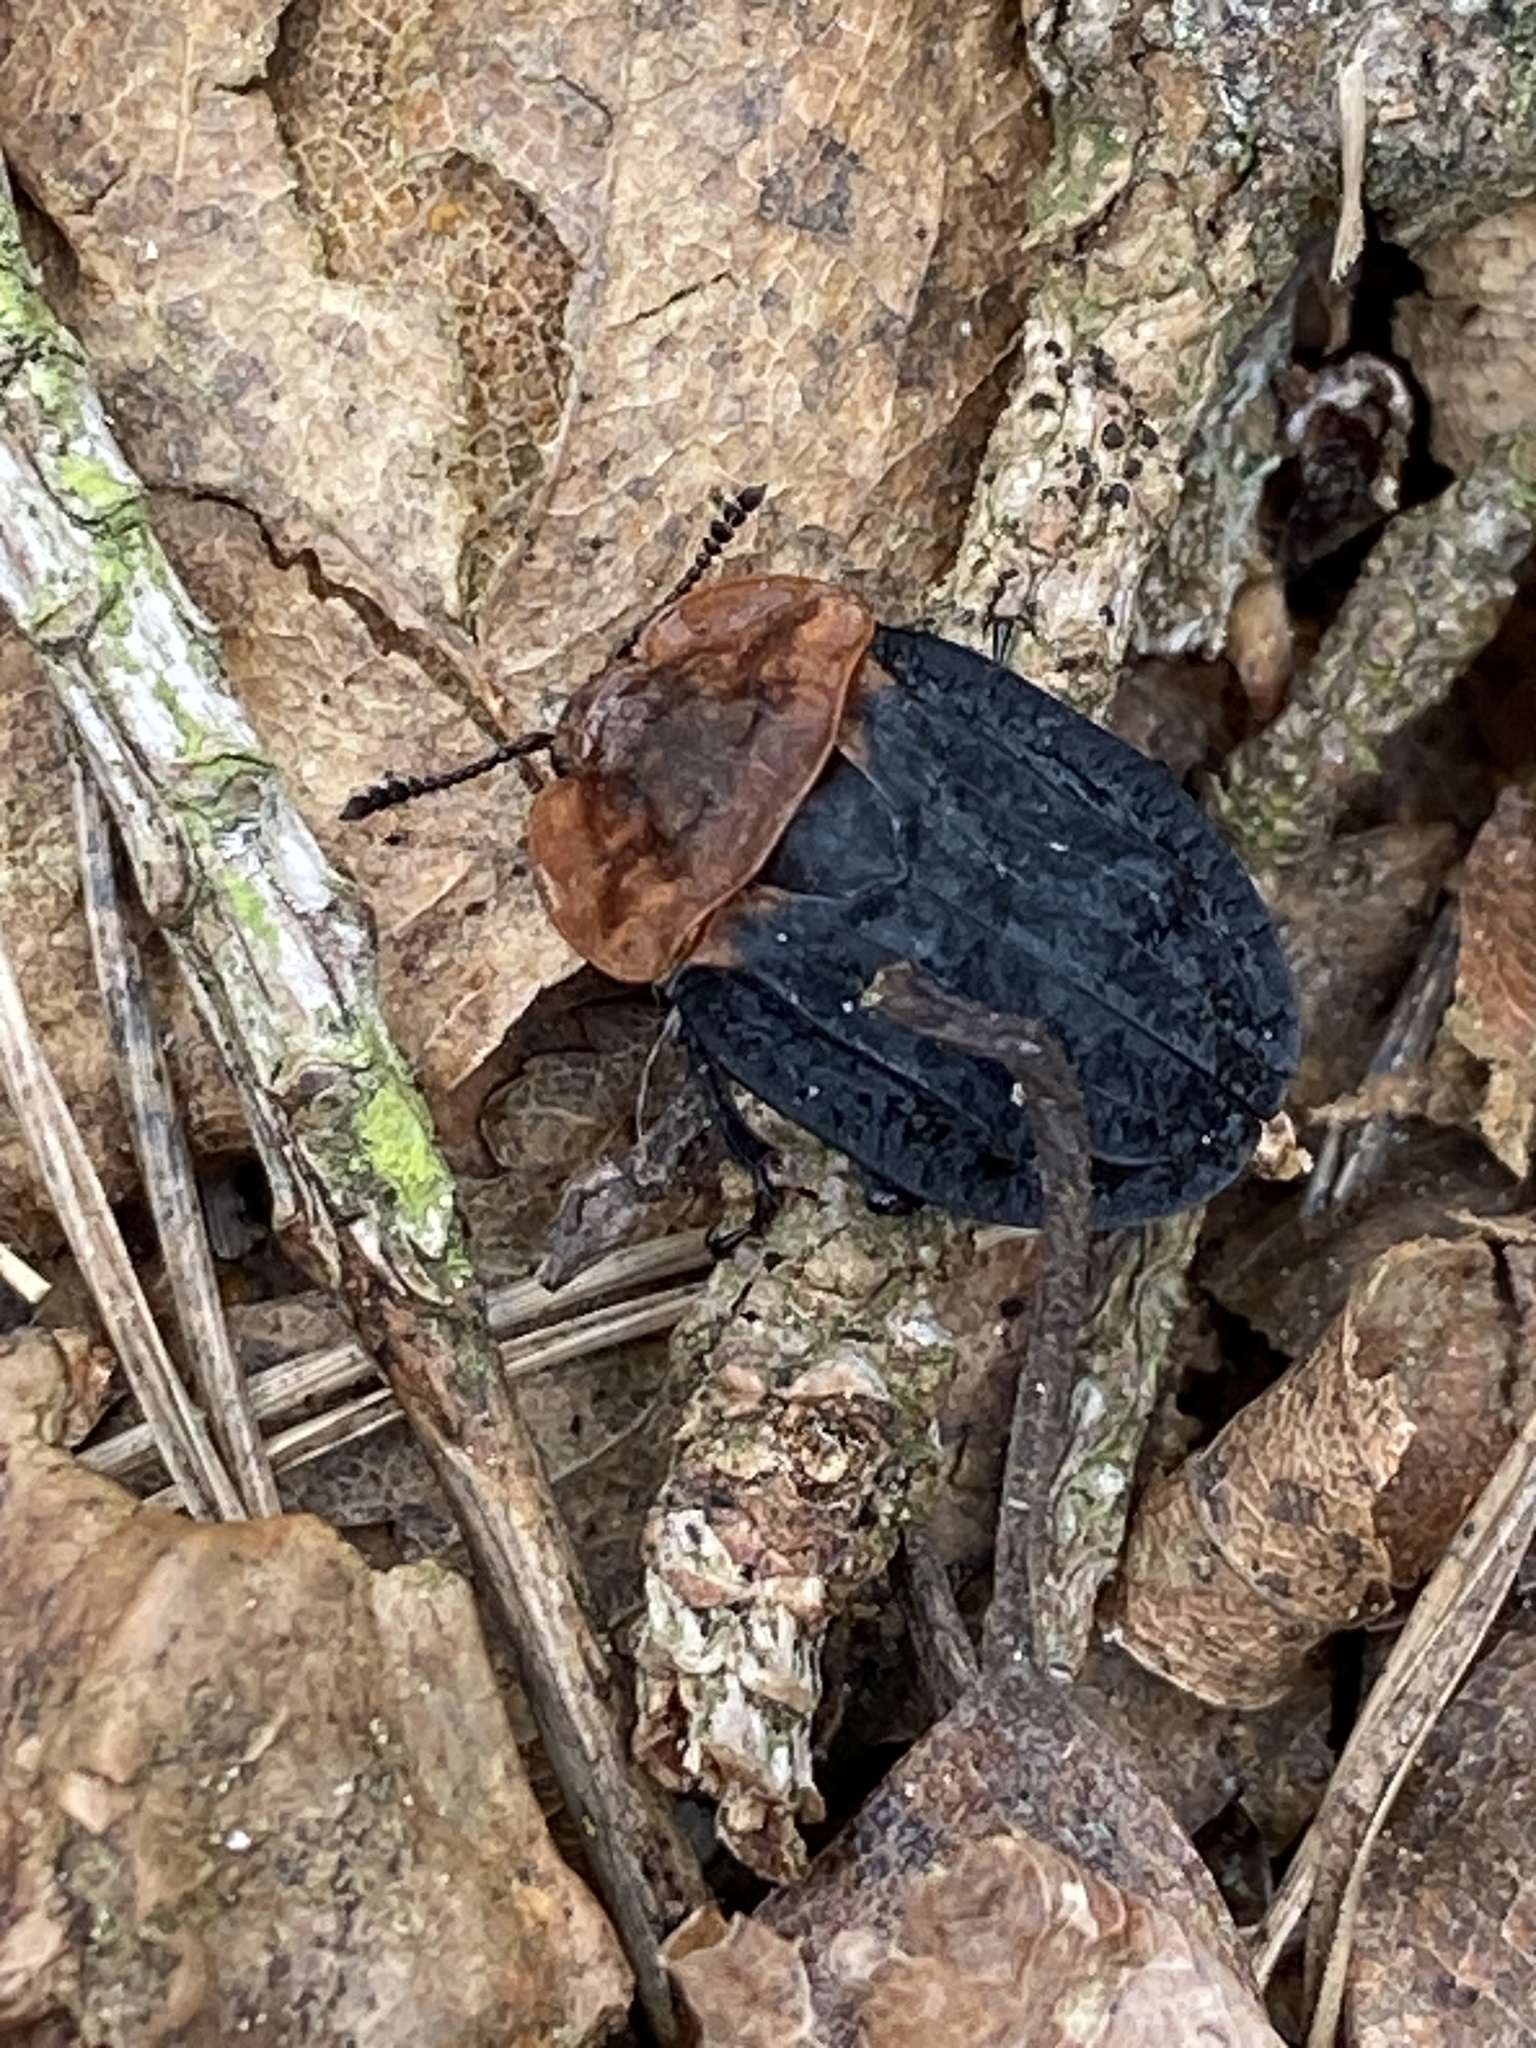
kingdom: Animalia
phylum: Arthropoda
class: Insecta
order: Coleoptera
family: Staphylinidae
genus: Oiceoptoma
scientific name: Oiceoptoma thoracicum
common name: Red-breasted carrion beetle
